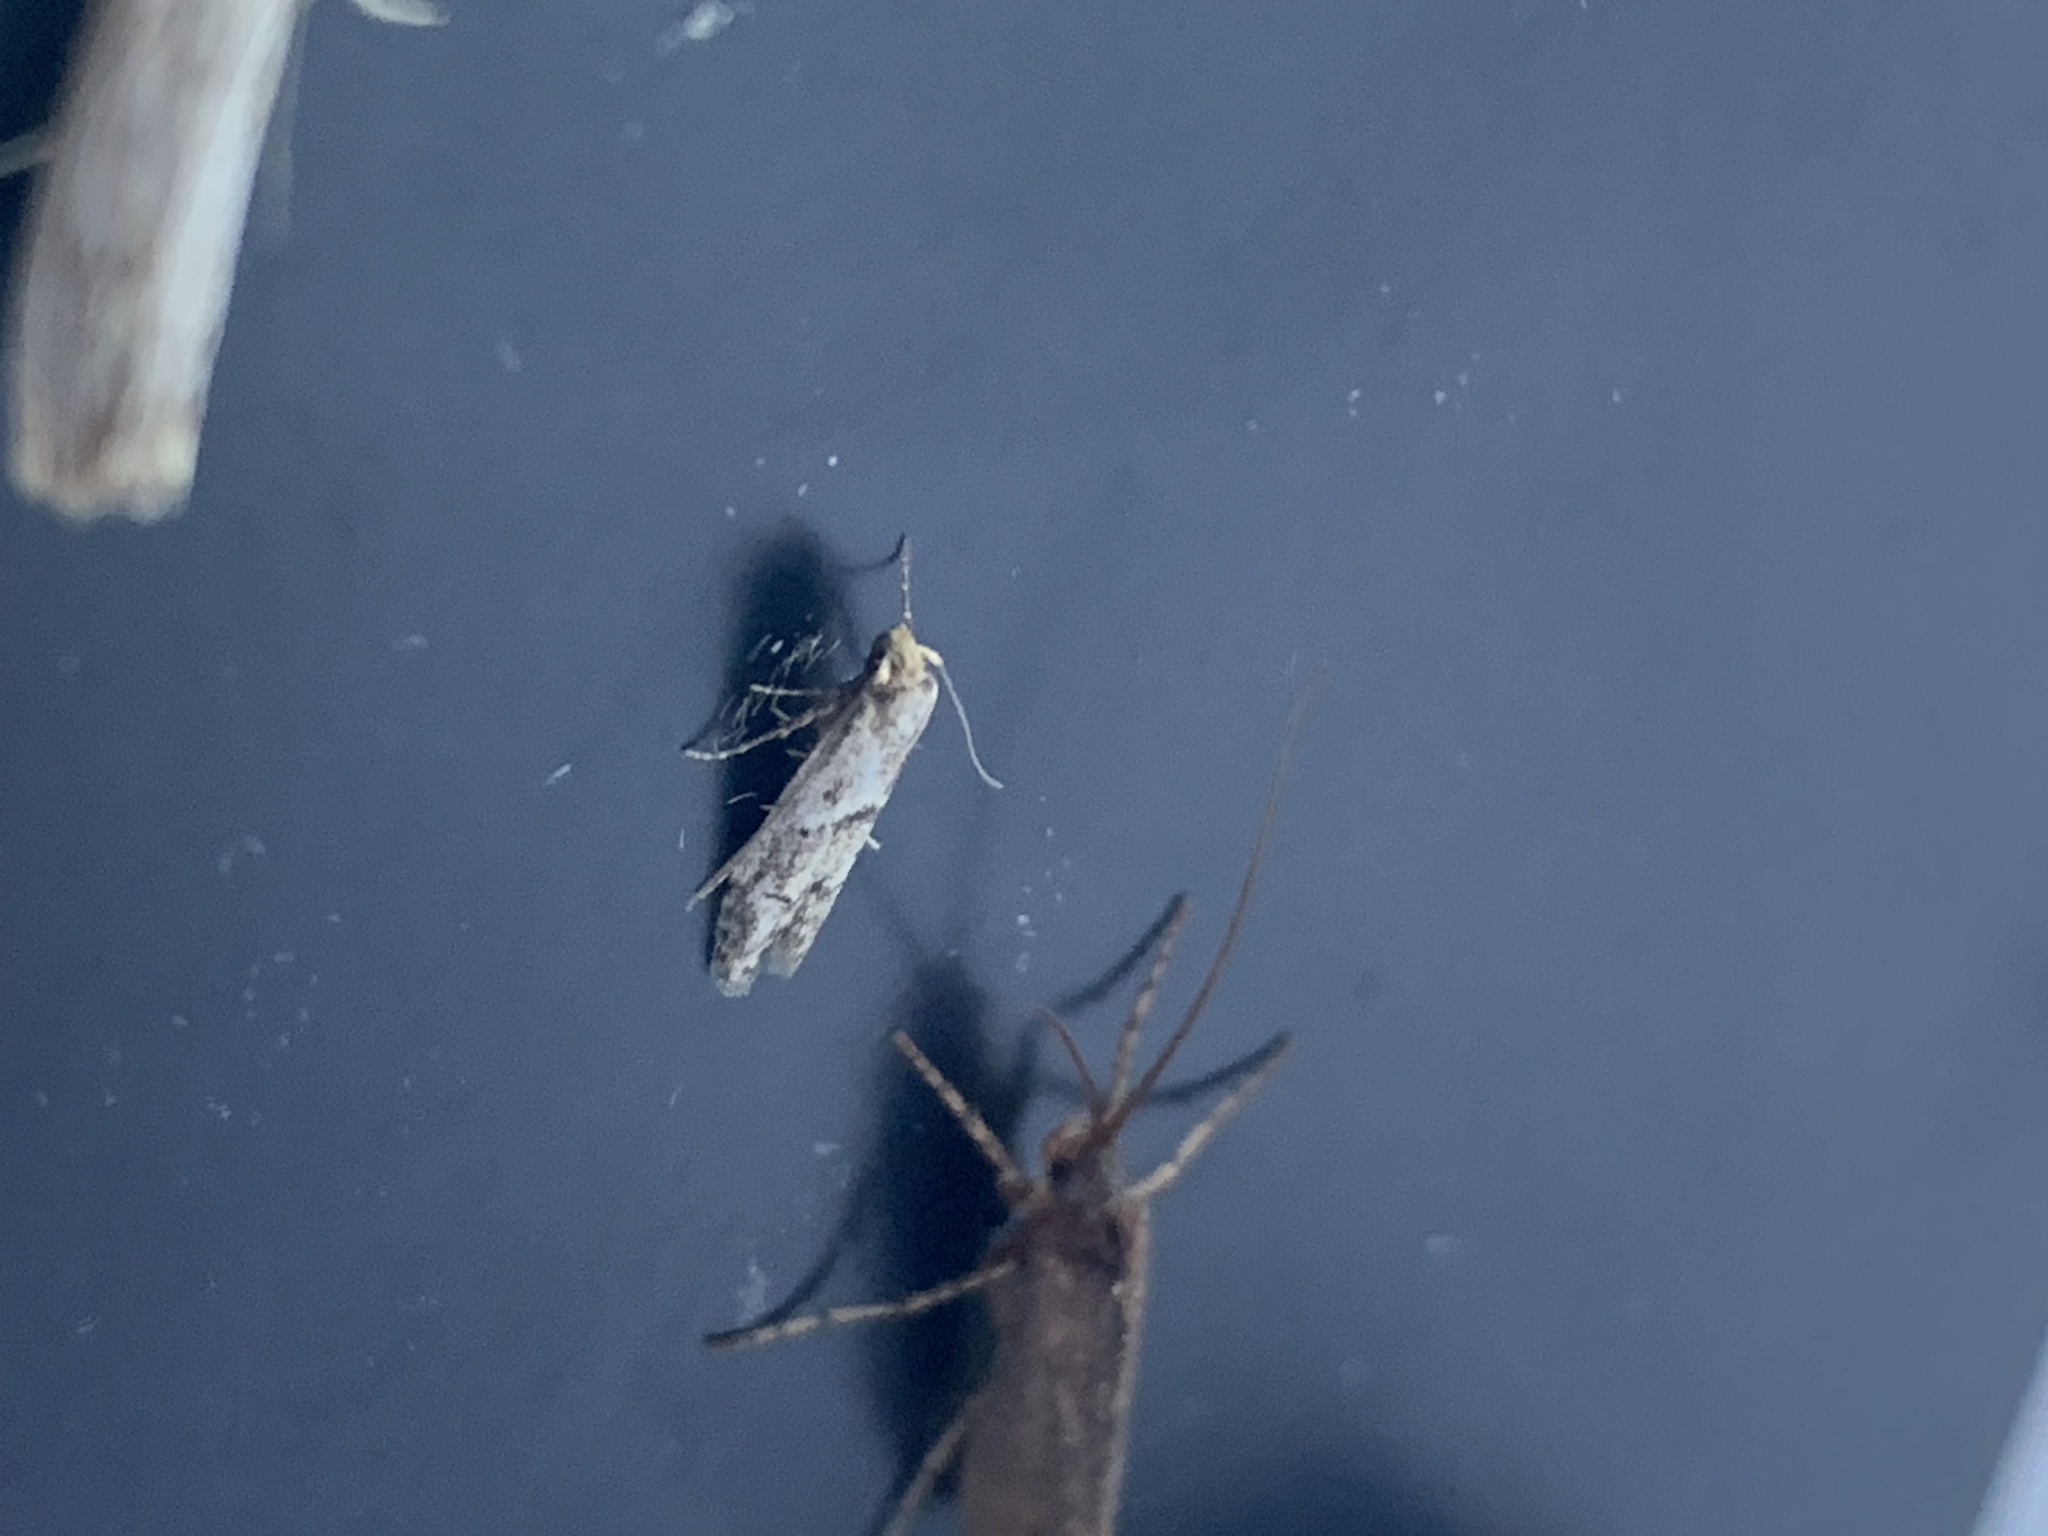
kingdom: Animalia
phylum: Arthropoda
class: Insecta
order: Lepidoptera
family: Blastobasidae
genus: Blastobasis
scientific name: Blastobasis lacticolella
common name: London dowd
